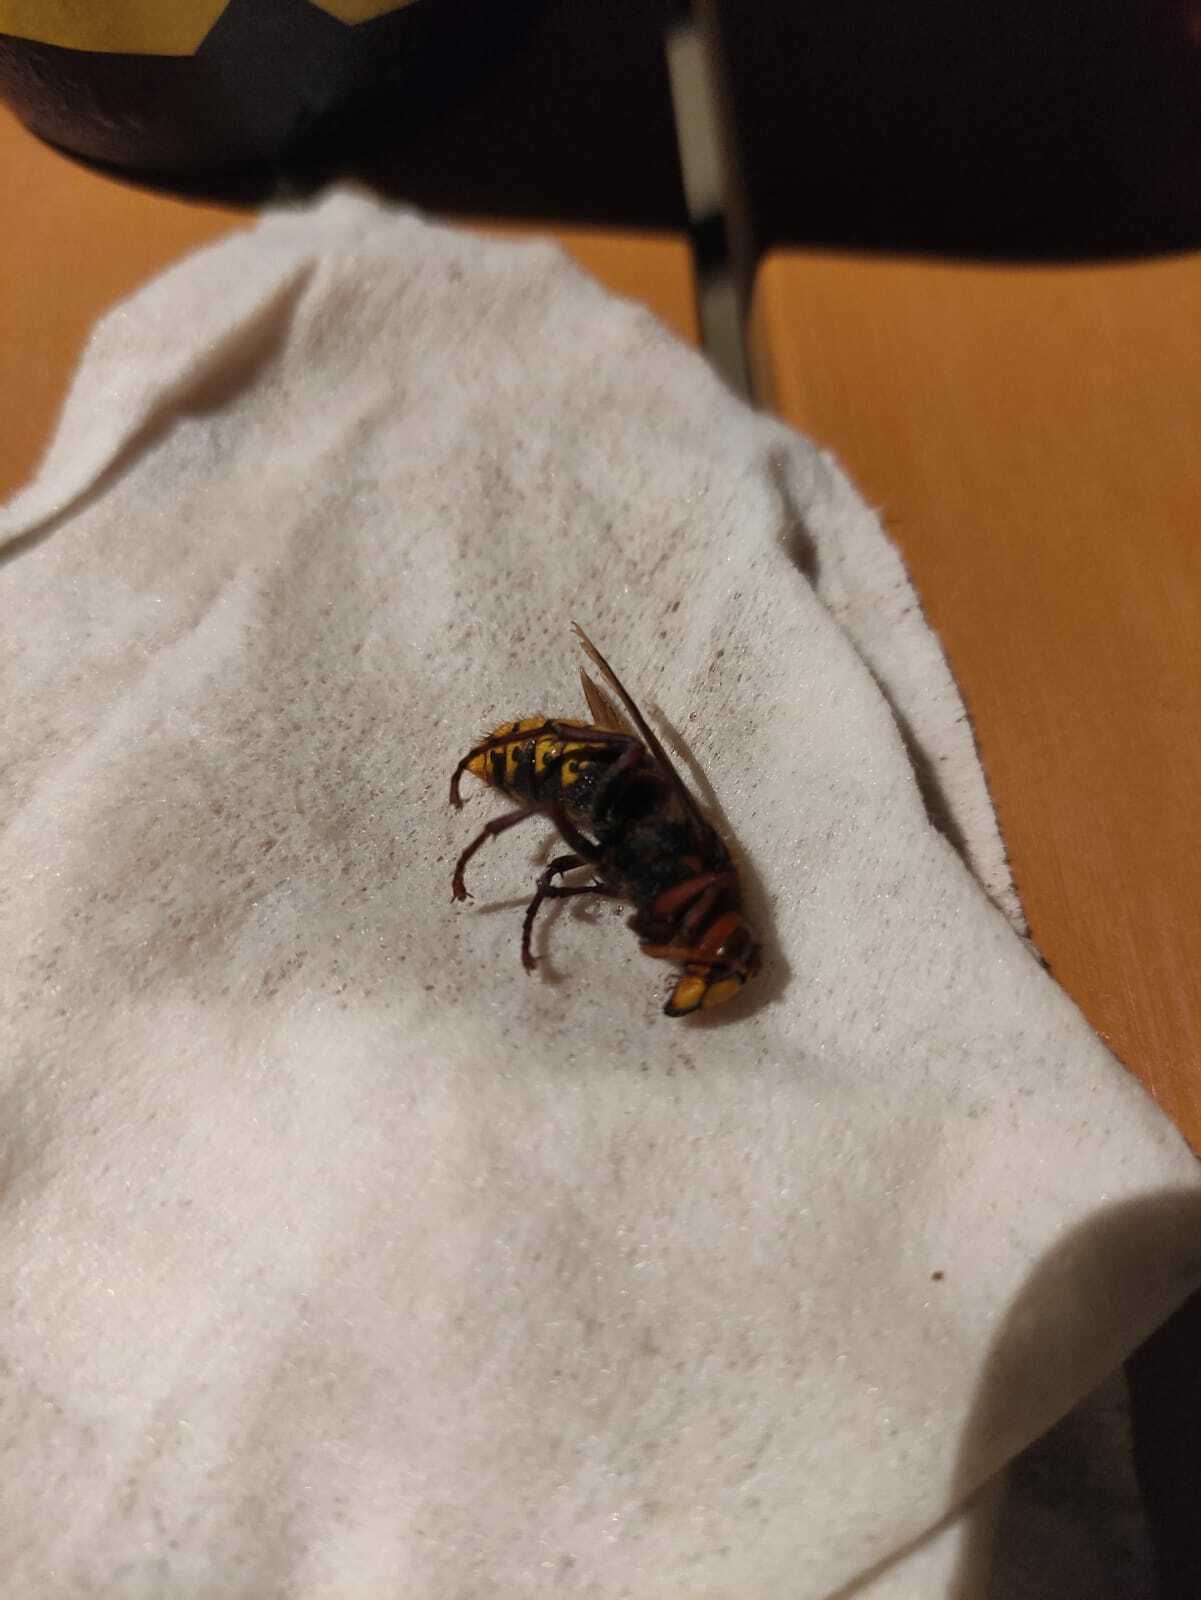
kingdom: Animalia
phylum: Arthropoda
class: Insecta
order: Hymenoptera
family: Vespidae
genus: Vespa
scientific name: Vespa crabro
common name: Hornet
